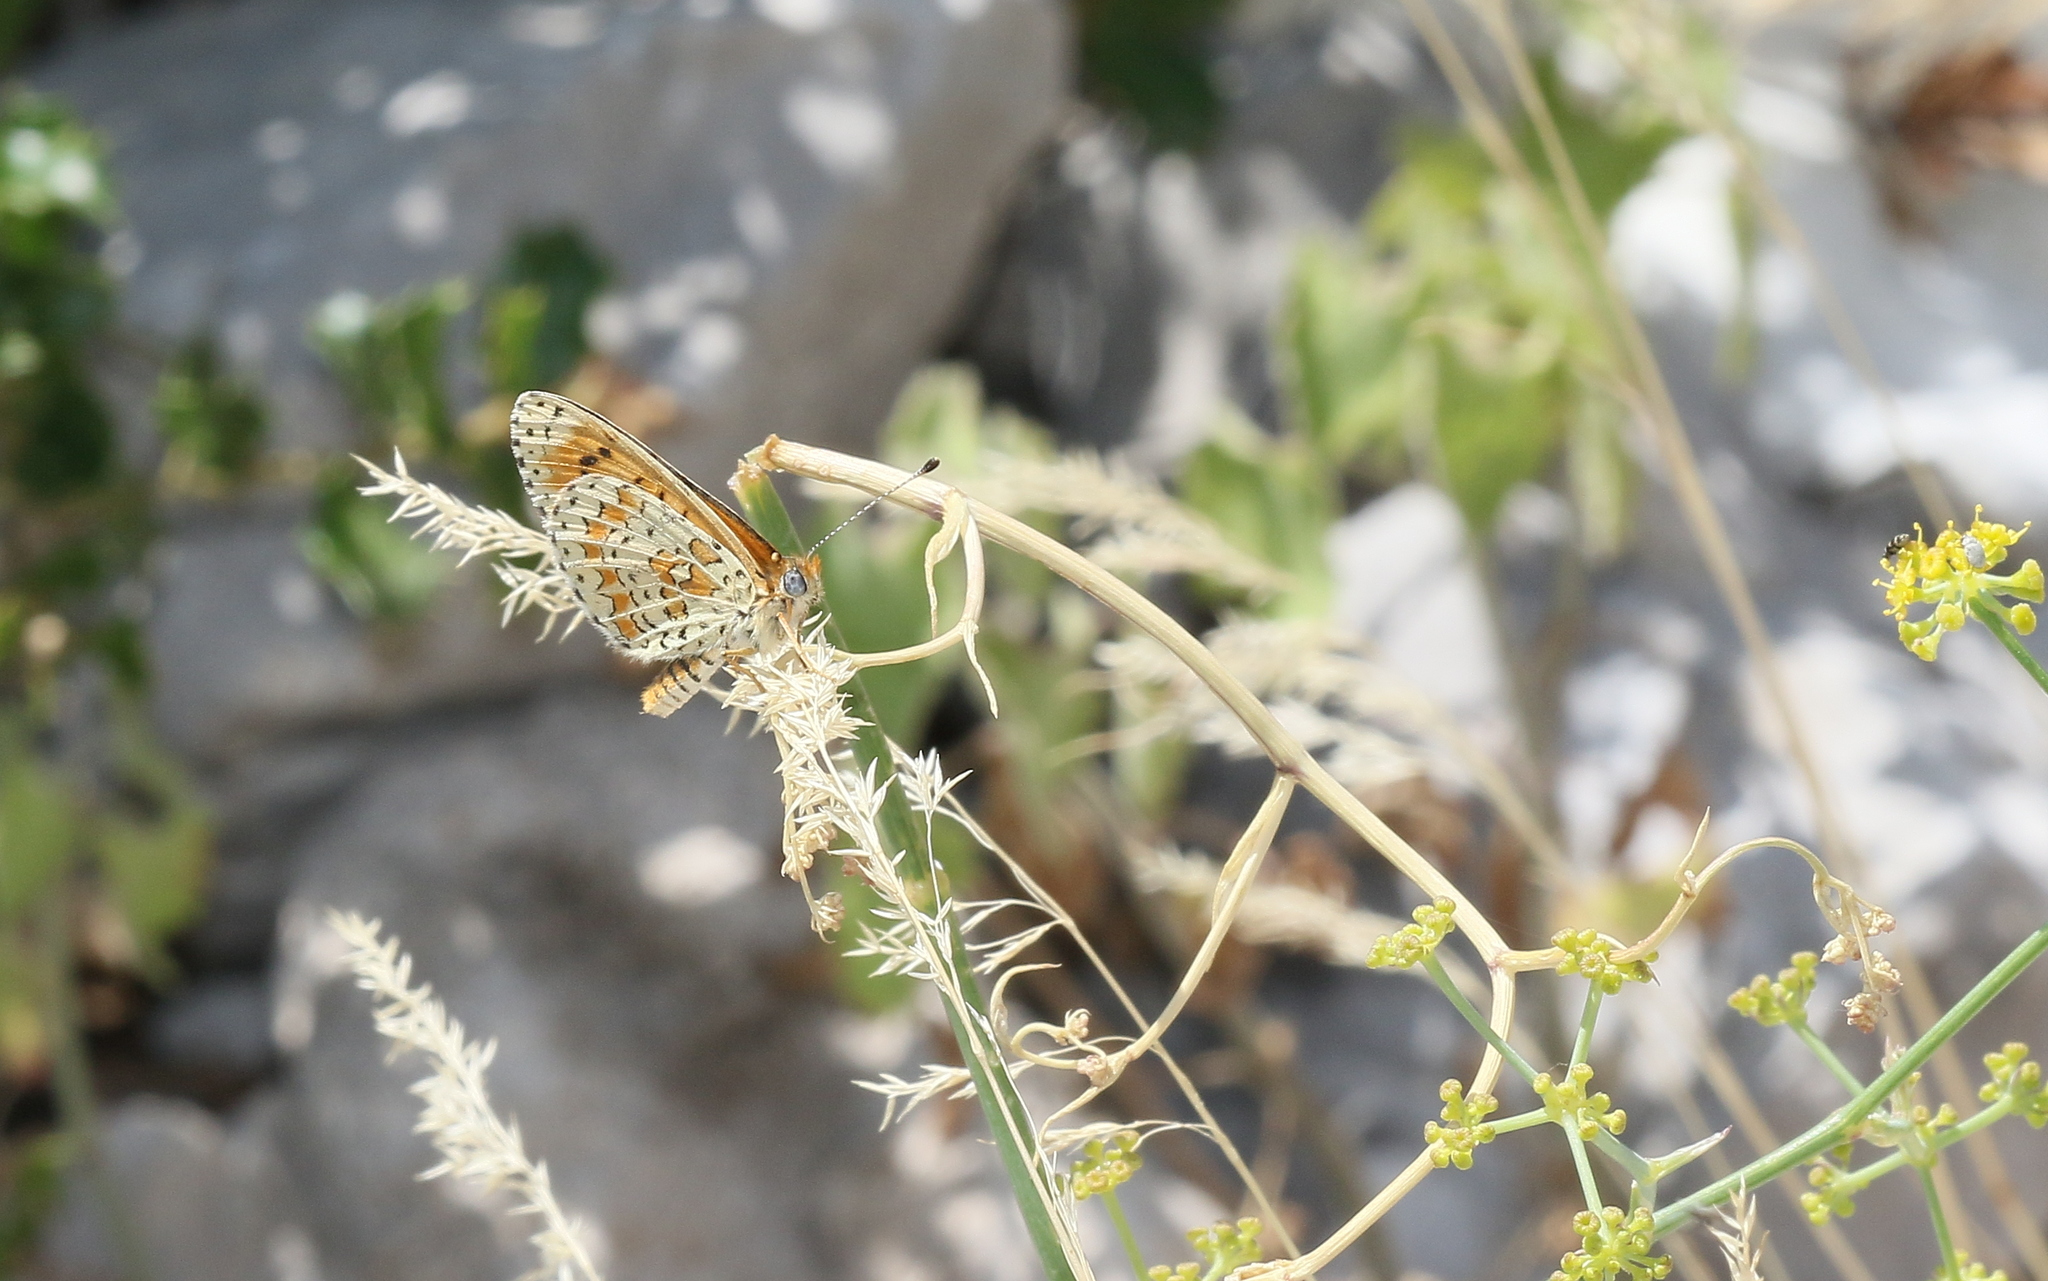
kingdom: Animalia
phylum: Arthropoda
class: Insecta
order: Lepidoptera
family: Nymphalidae
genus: Melitaea
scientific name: Melitaea trivia
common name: Lesser spotted fritillary
